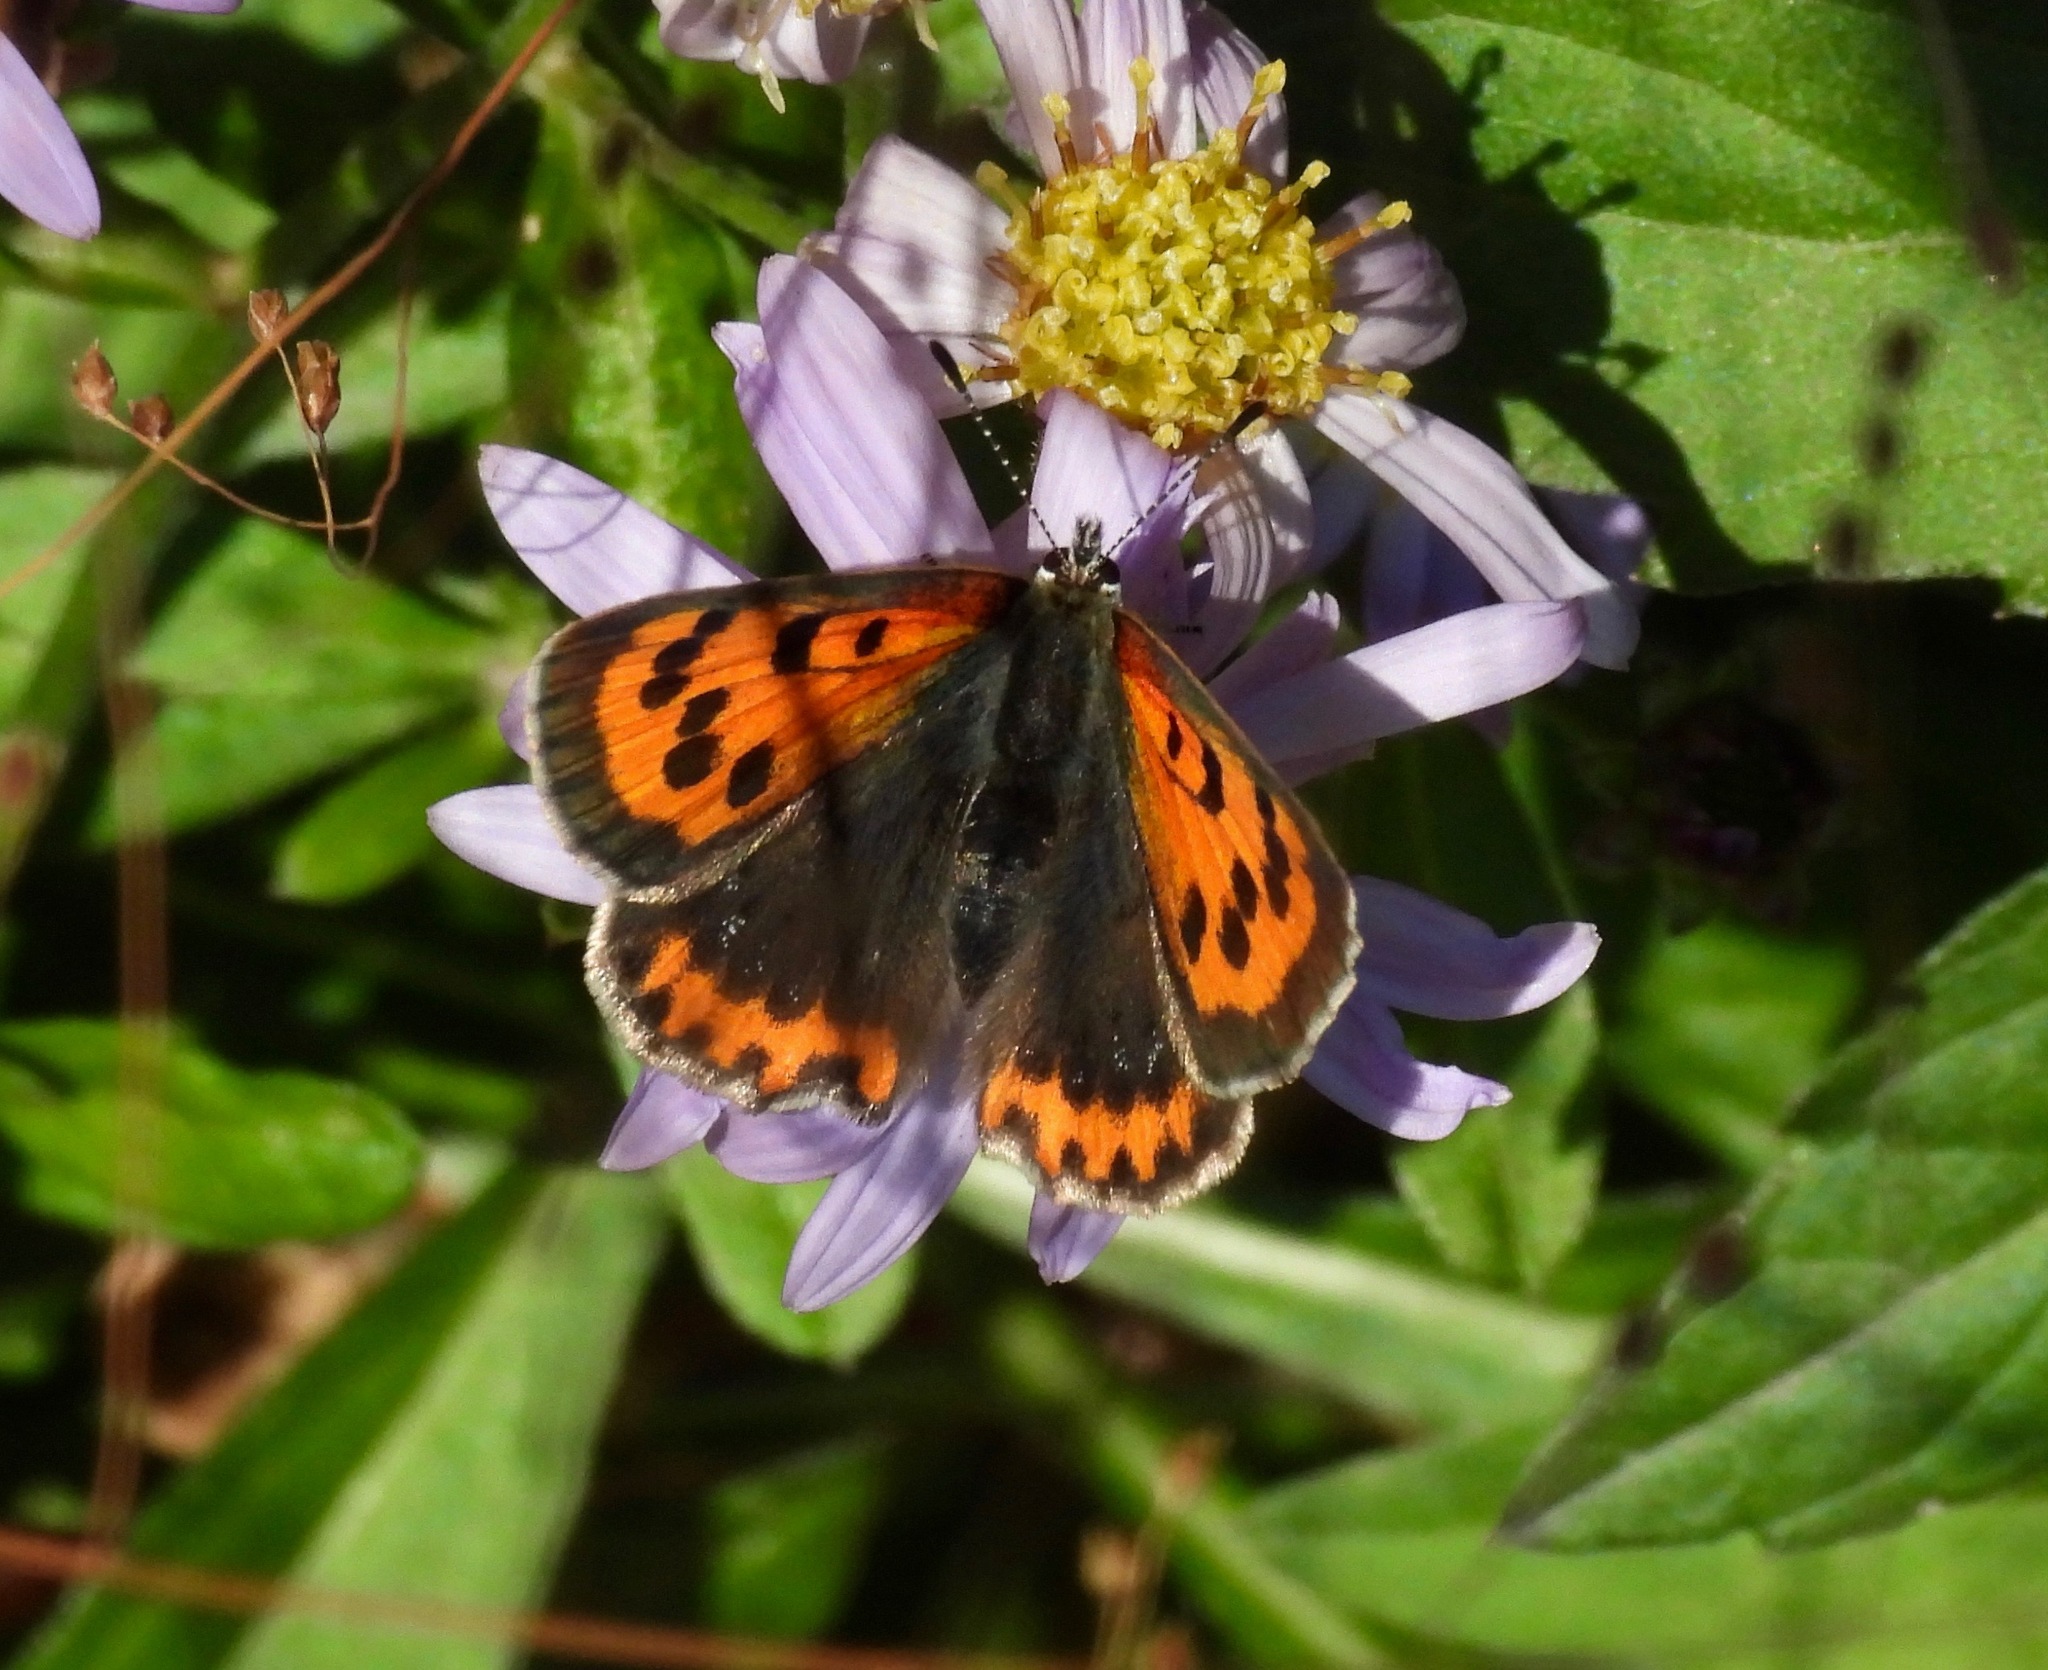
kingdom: Animalia
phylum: Arthropoda
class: Insecta
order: Lepidoptera
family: Lycaenidae
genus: Lycaena
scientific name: Lycaena phlaeas
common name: Small copper
